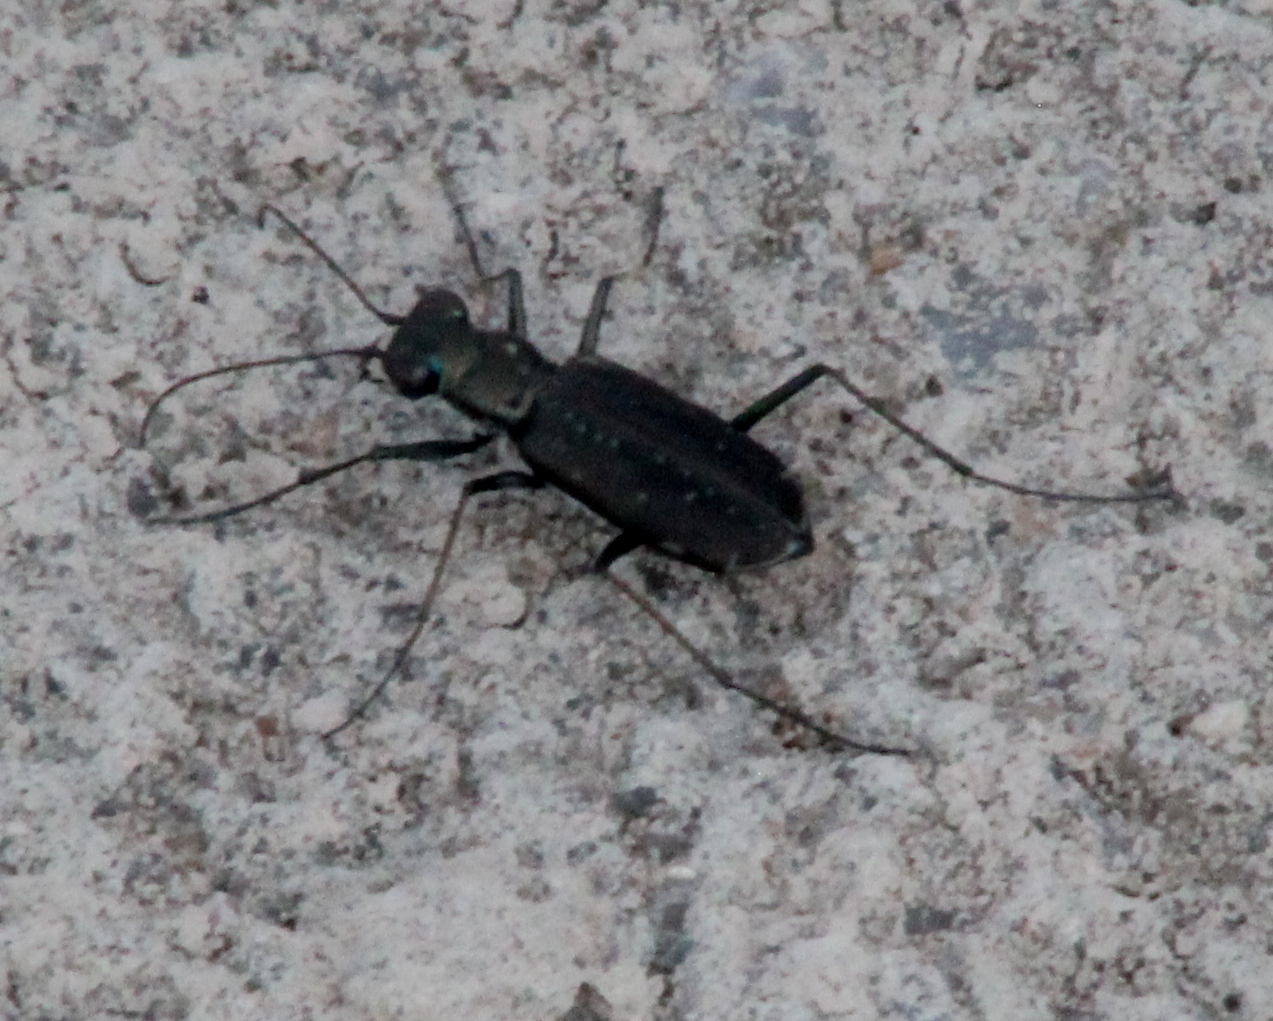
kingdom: Animalia
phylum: Arthropoda
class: Insecta
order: Coleoptera
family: Carabidae
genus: Cicindela
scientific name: Cicindela punctulata
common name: Punctured tiger beetle
